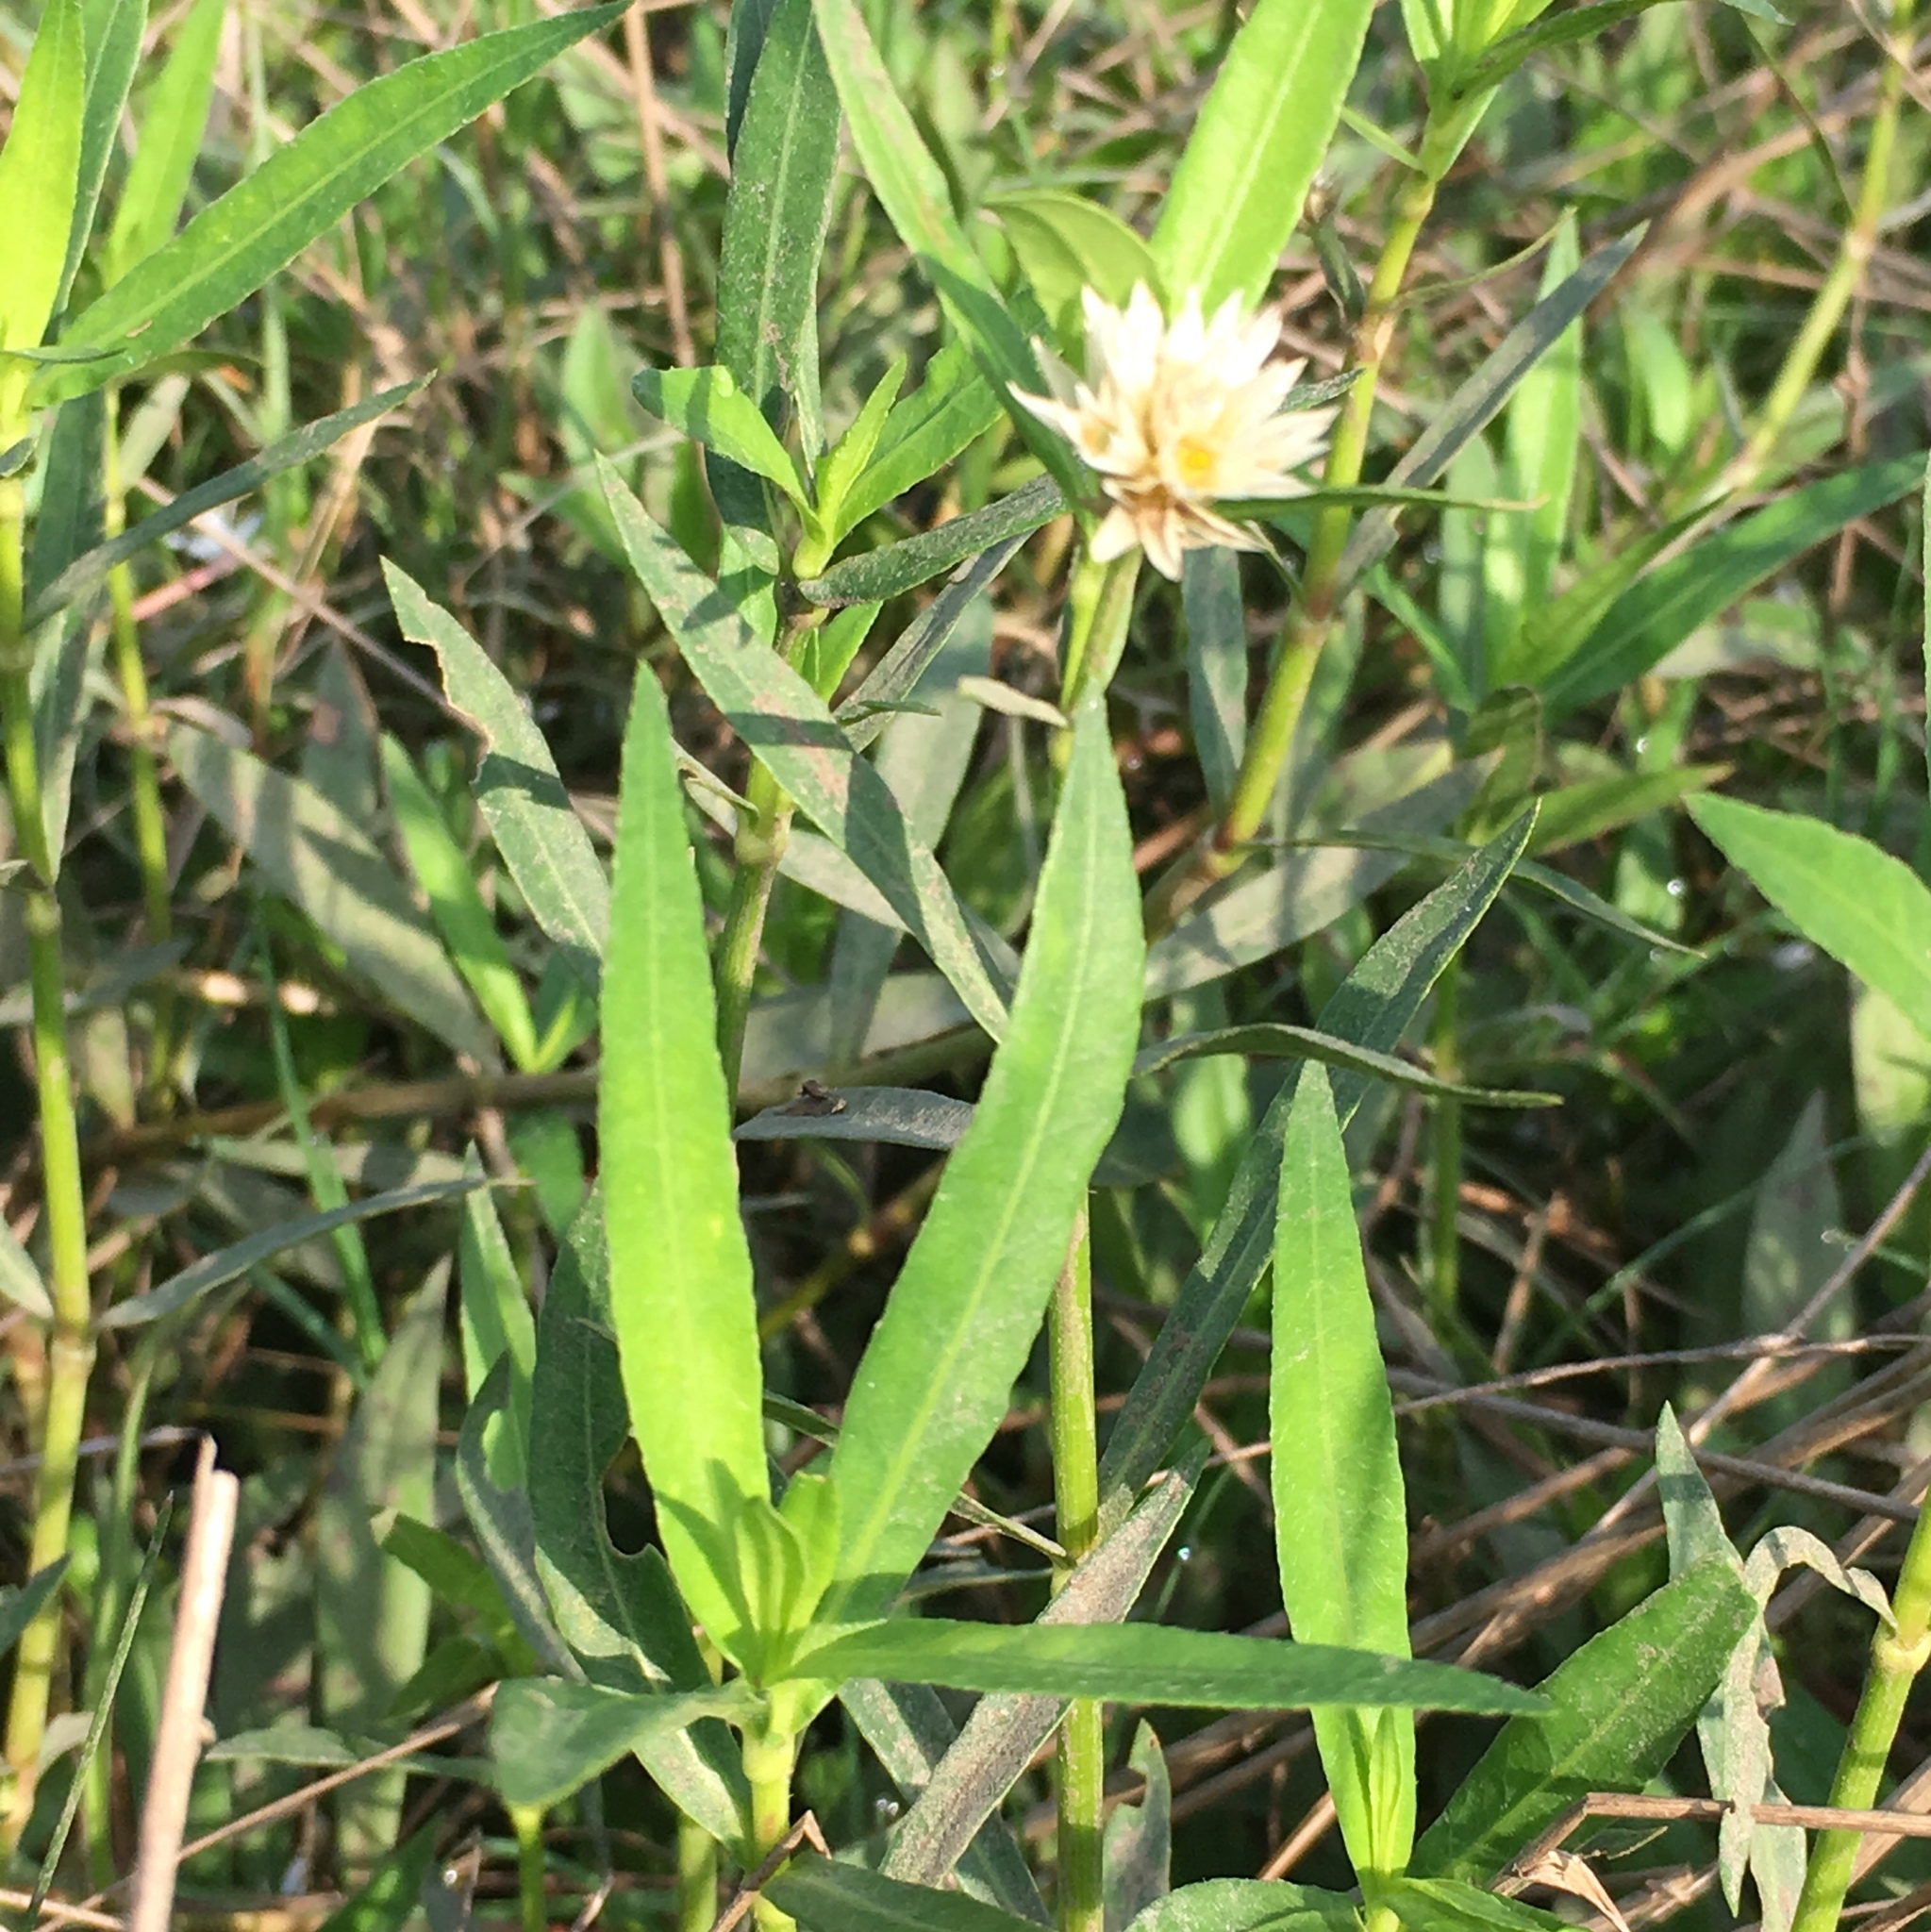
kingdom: Plantae
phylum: Tracheophyta
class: Magnoliopsida
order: Caryophyllales
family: Amaranthaceae
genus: Alternanthera
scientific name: Alternanthera philoxeroides
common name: Alligatorweed
